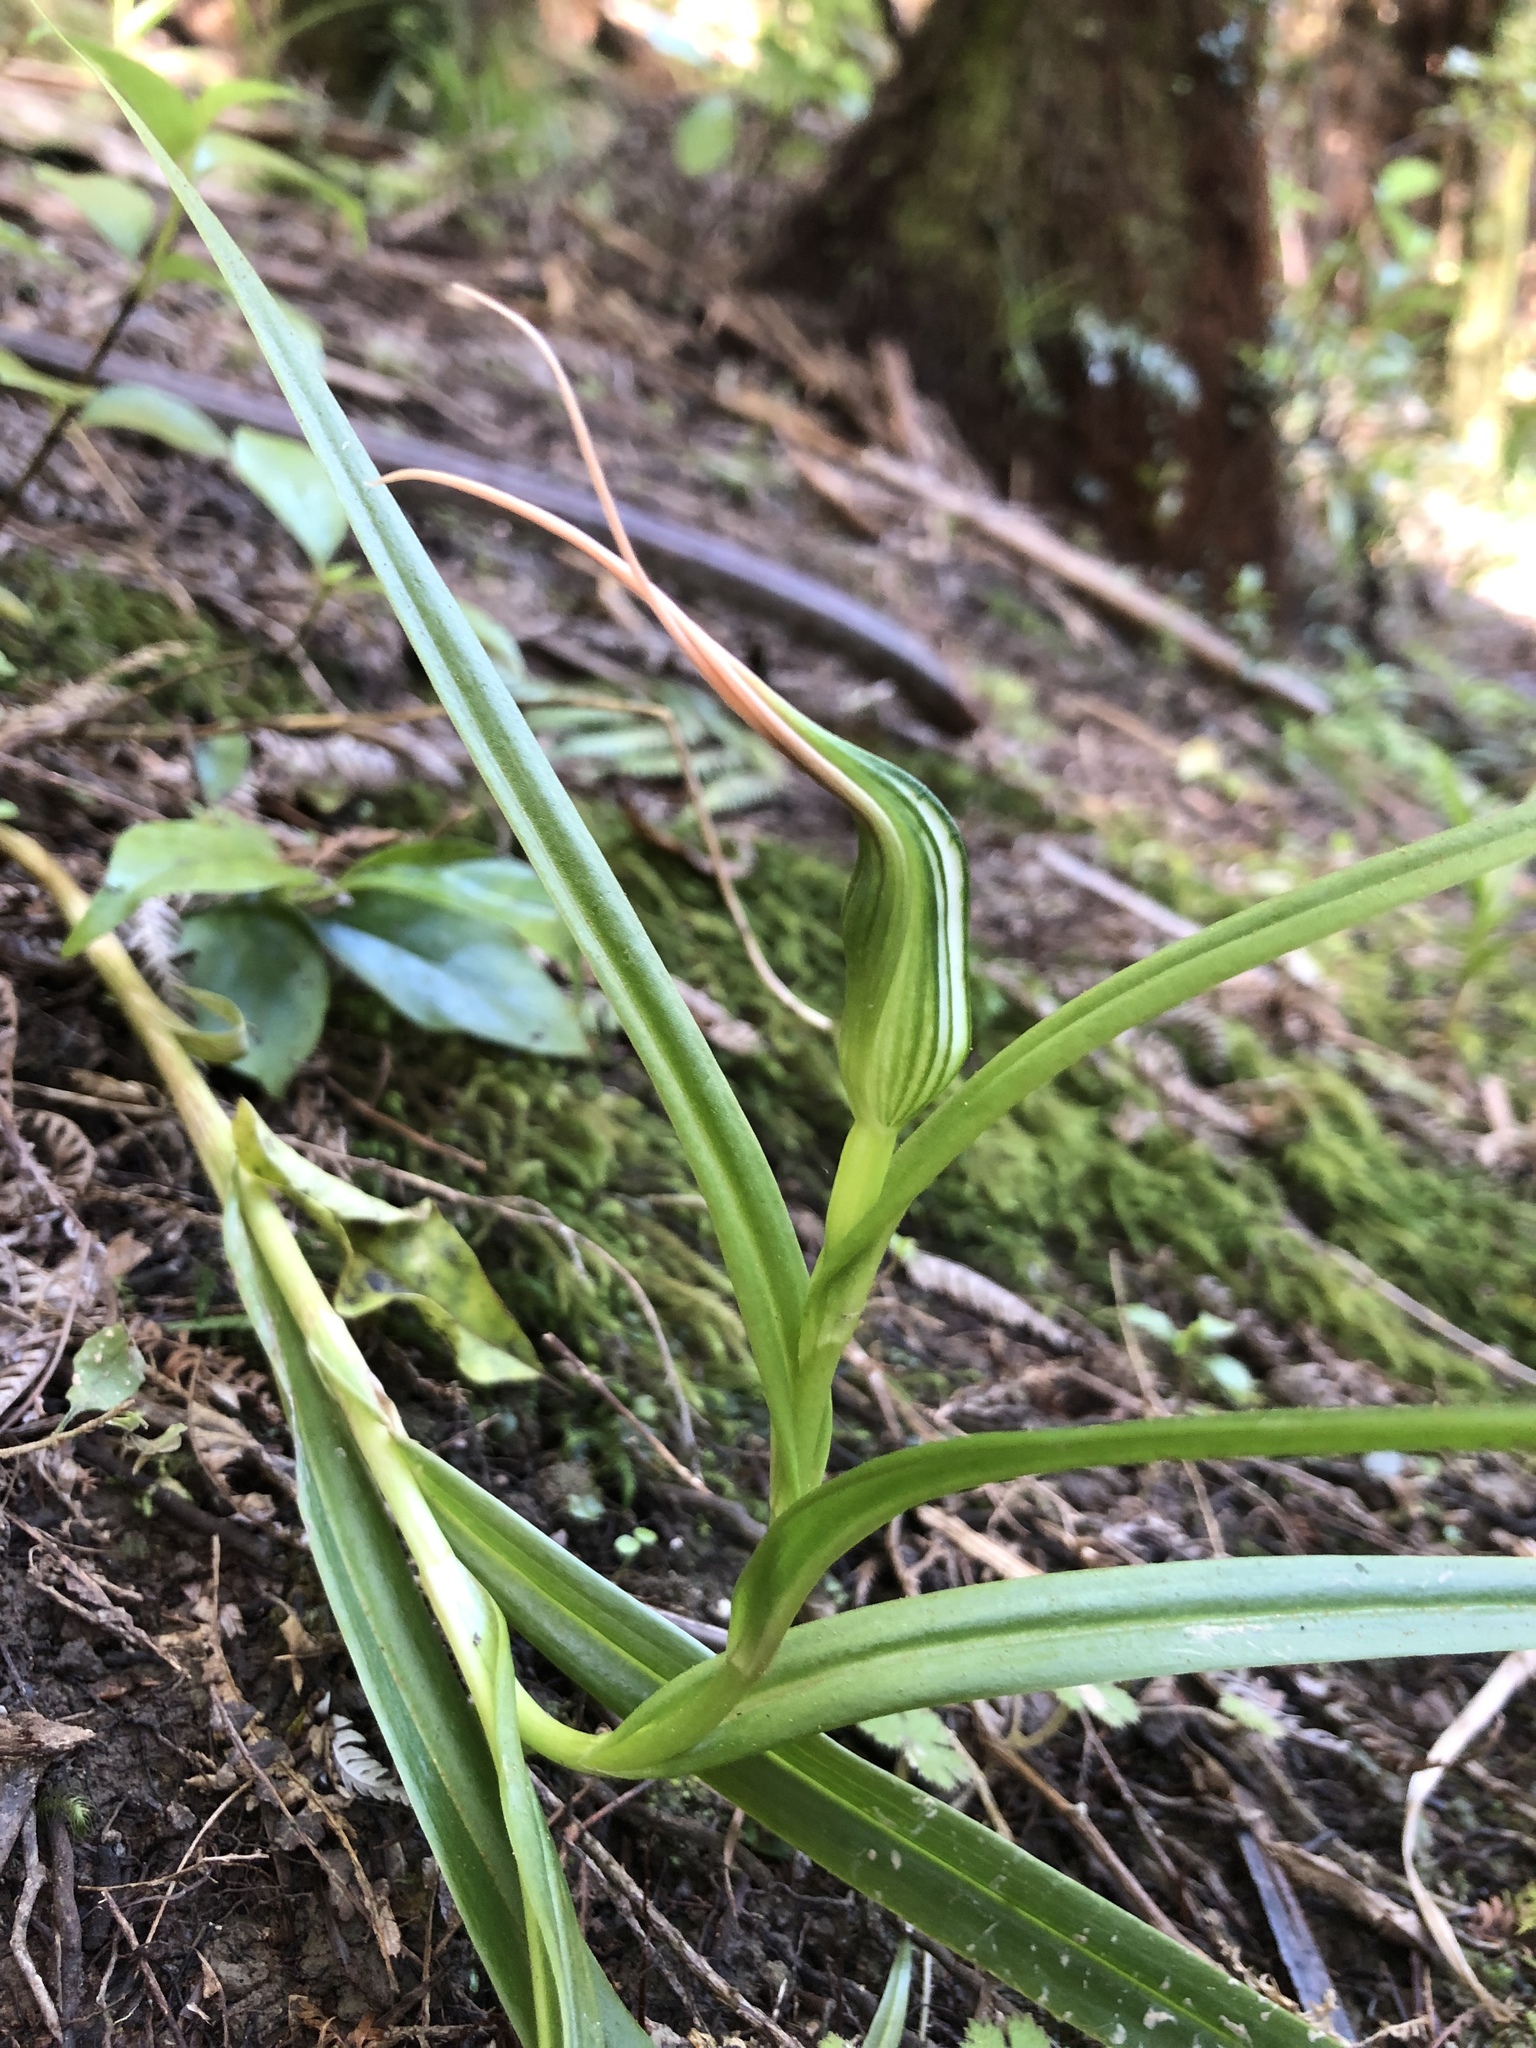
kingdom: Plantae
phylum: Tracheophyta
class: Liliopsida
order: Asparagales
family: Orchidaceae
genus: Pterostylis
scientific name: Pterostylis banksii
